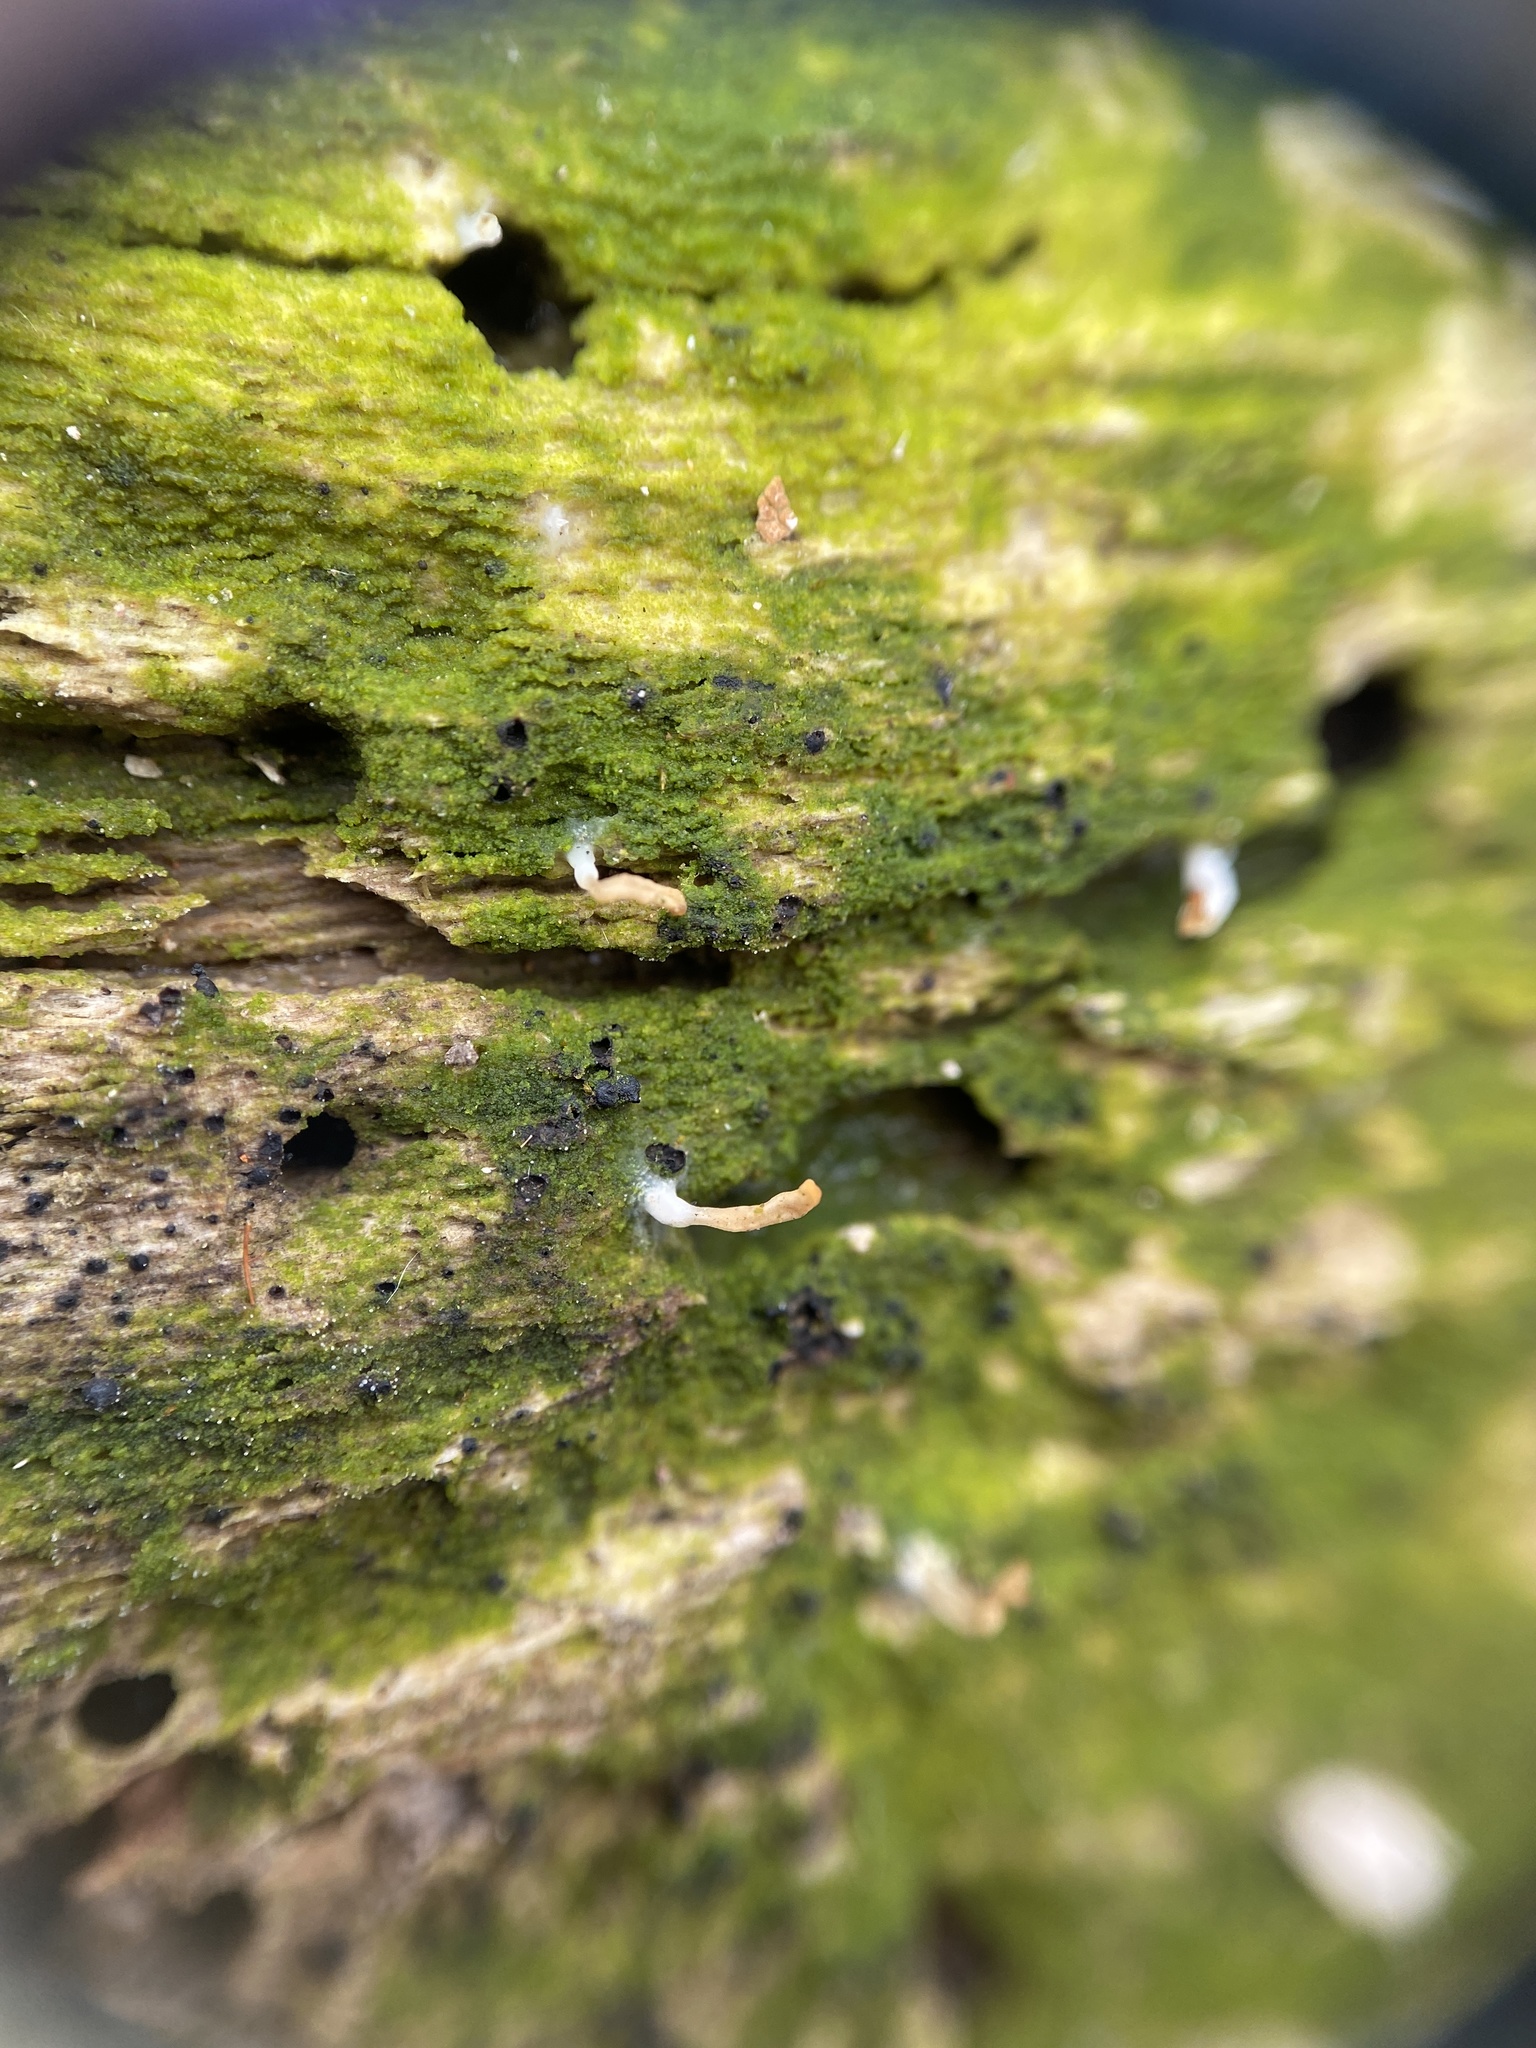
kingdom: Fungi
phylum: Basidiomycota
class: Agaricomycetes
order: Cantharellales
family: Hydnaceae
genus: Multiclavula
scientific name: Multiclavula mucida
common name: White green-algae coral
